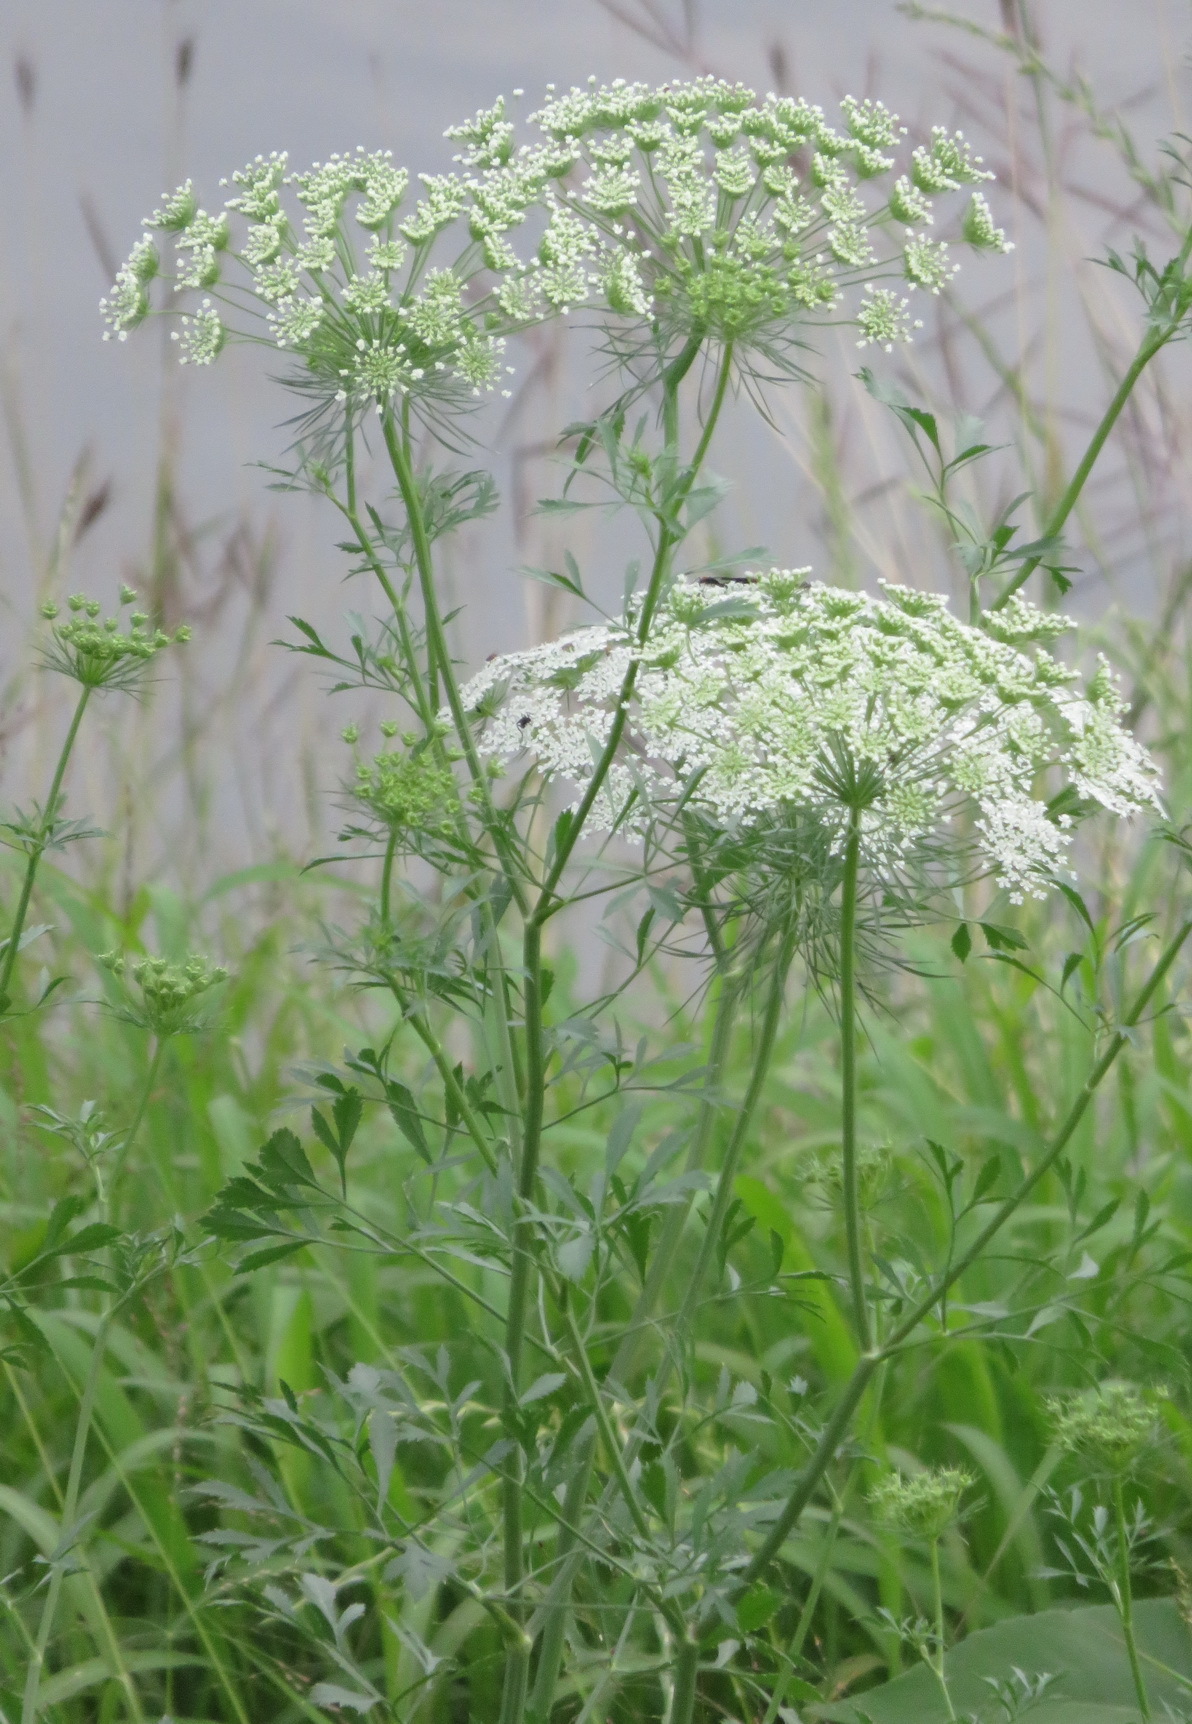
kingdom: Plantae
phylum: Tracheophyta
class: Magnoliopsida
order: Apiales
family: Apiaceae
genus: Ammi
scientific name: Ammi majus
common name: Bullwort
